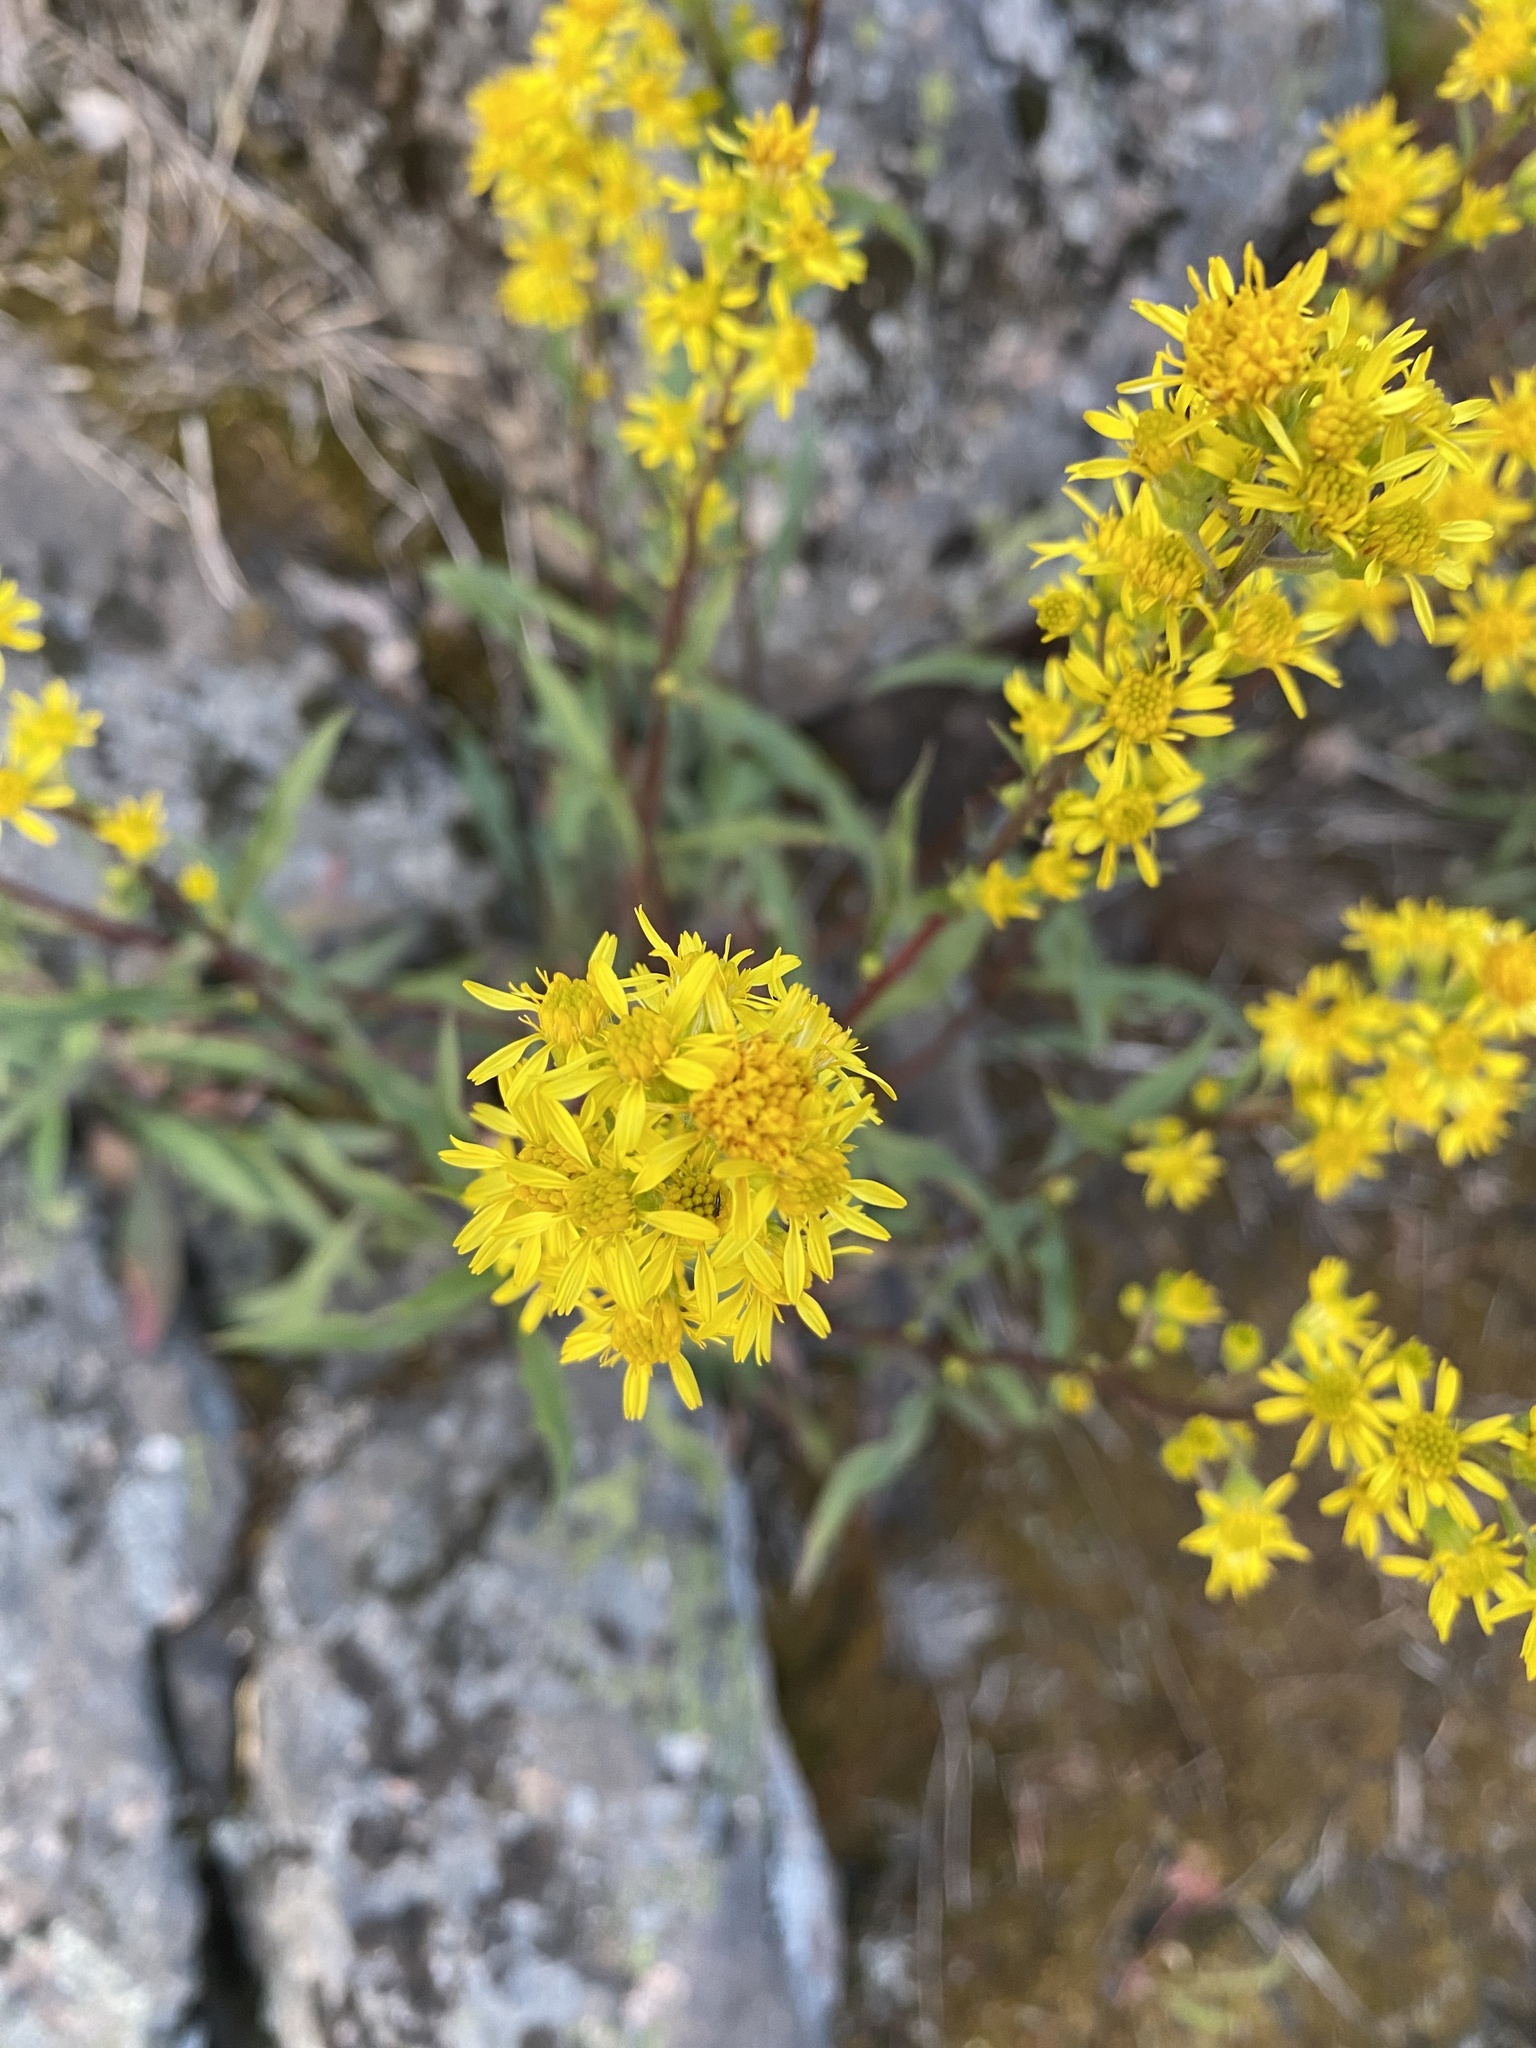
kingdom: Plantae
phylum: Tracheophyta
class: Magnoliopsida
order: Asterales
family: Asteraceae
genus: Solidago
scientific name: Solidago virgaurea
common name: Goldenrod
